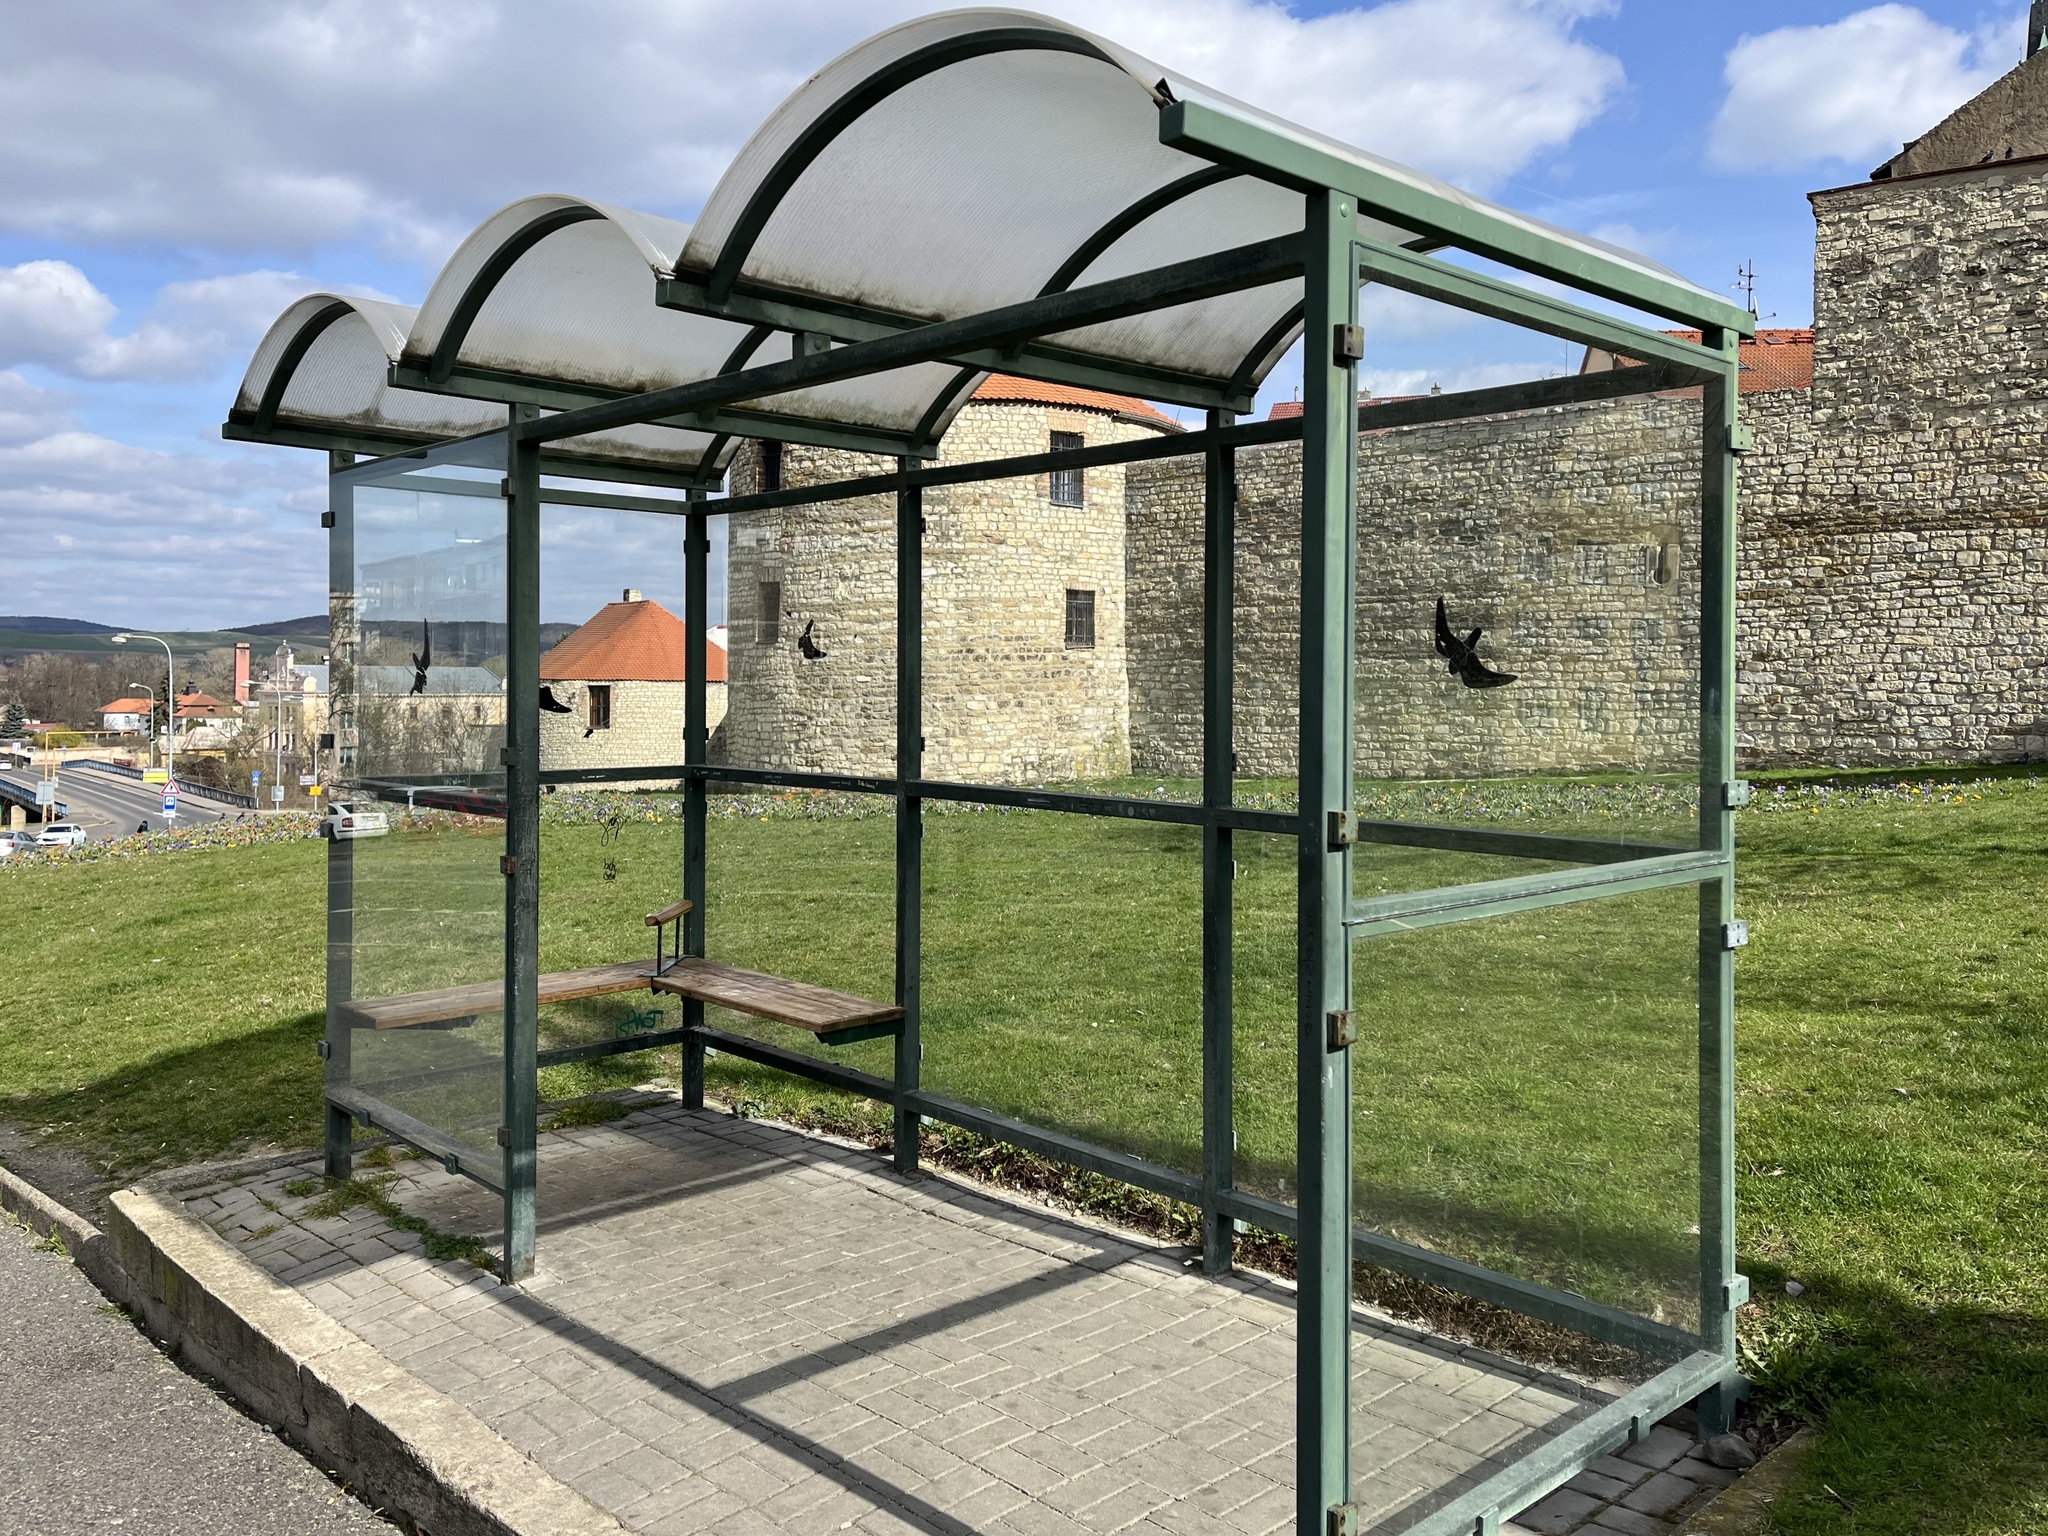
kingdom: Animalia
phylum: Chordata
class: Aves
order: Passeriformes
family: Paridae
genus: Cyanistes
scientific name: Cyanistes caeruleus
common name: Eurasian blue tit
